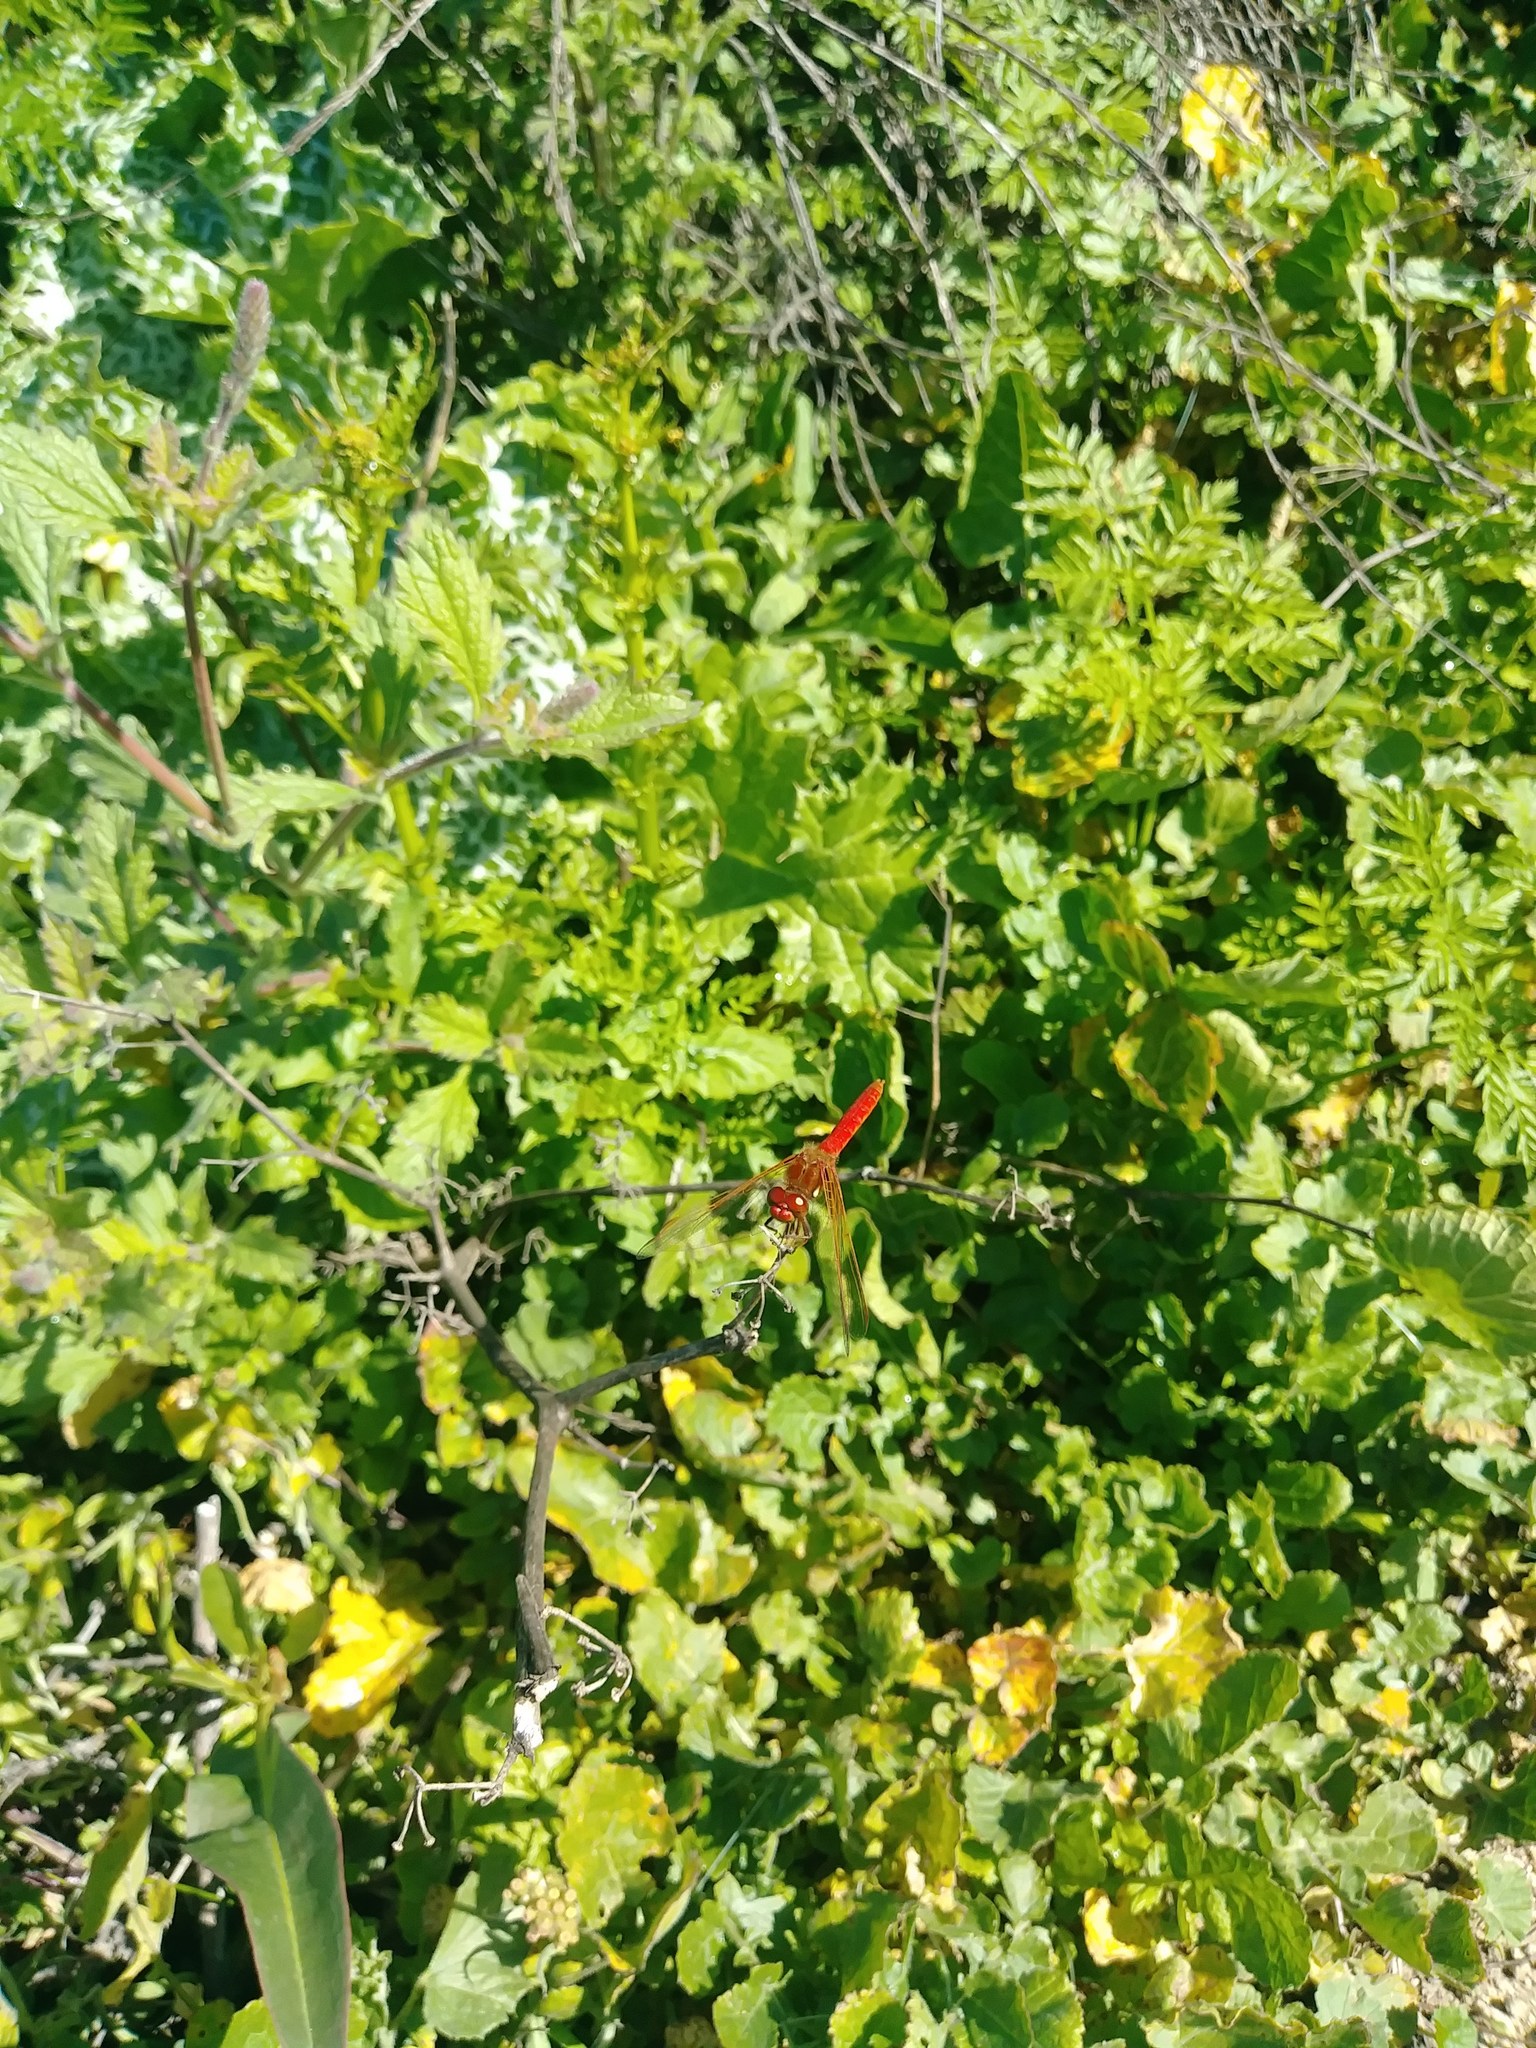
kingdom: Animalia
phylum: Arthropoda
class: Insecta
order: Odonata
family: Libellulidae
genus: Sympetrum
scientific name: Sympetrum illotum
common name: Cardinal meadowhawk
